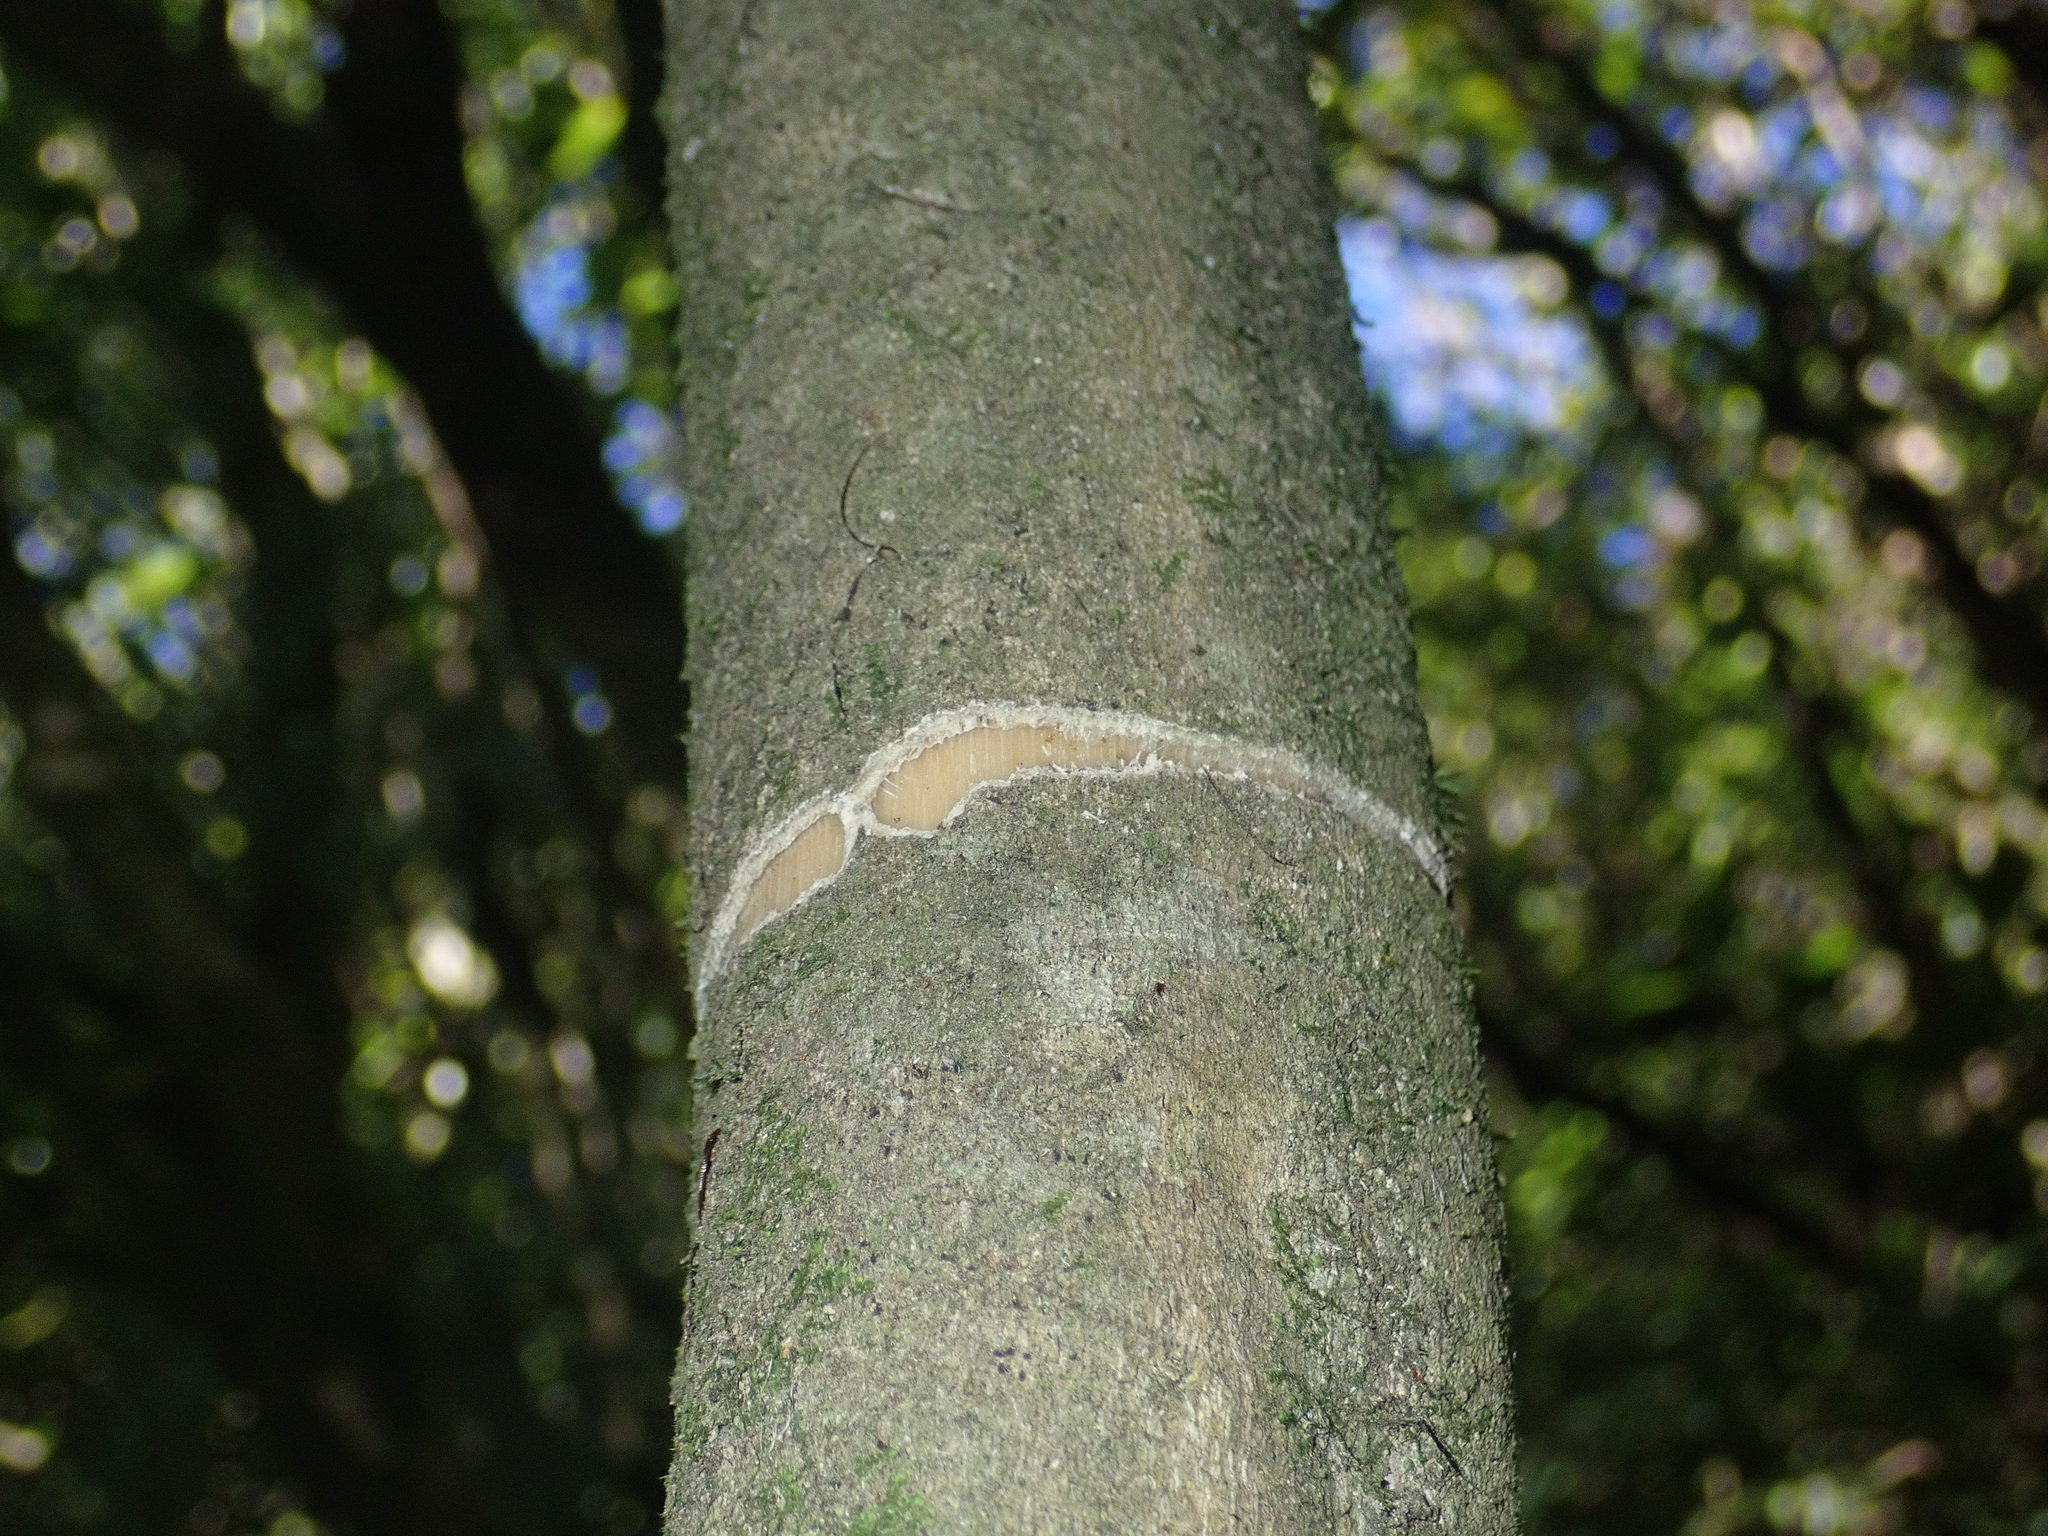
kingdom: Animalia
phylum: Chordata
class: Aves
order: Psittaciformes
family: Psittacidae
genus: Nestor
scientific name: Nestor meridionalis
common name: New zealand kaka
